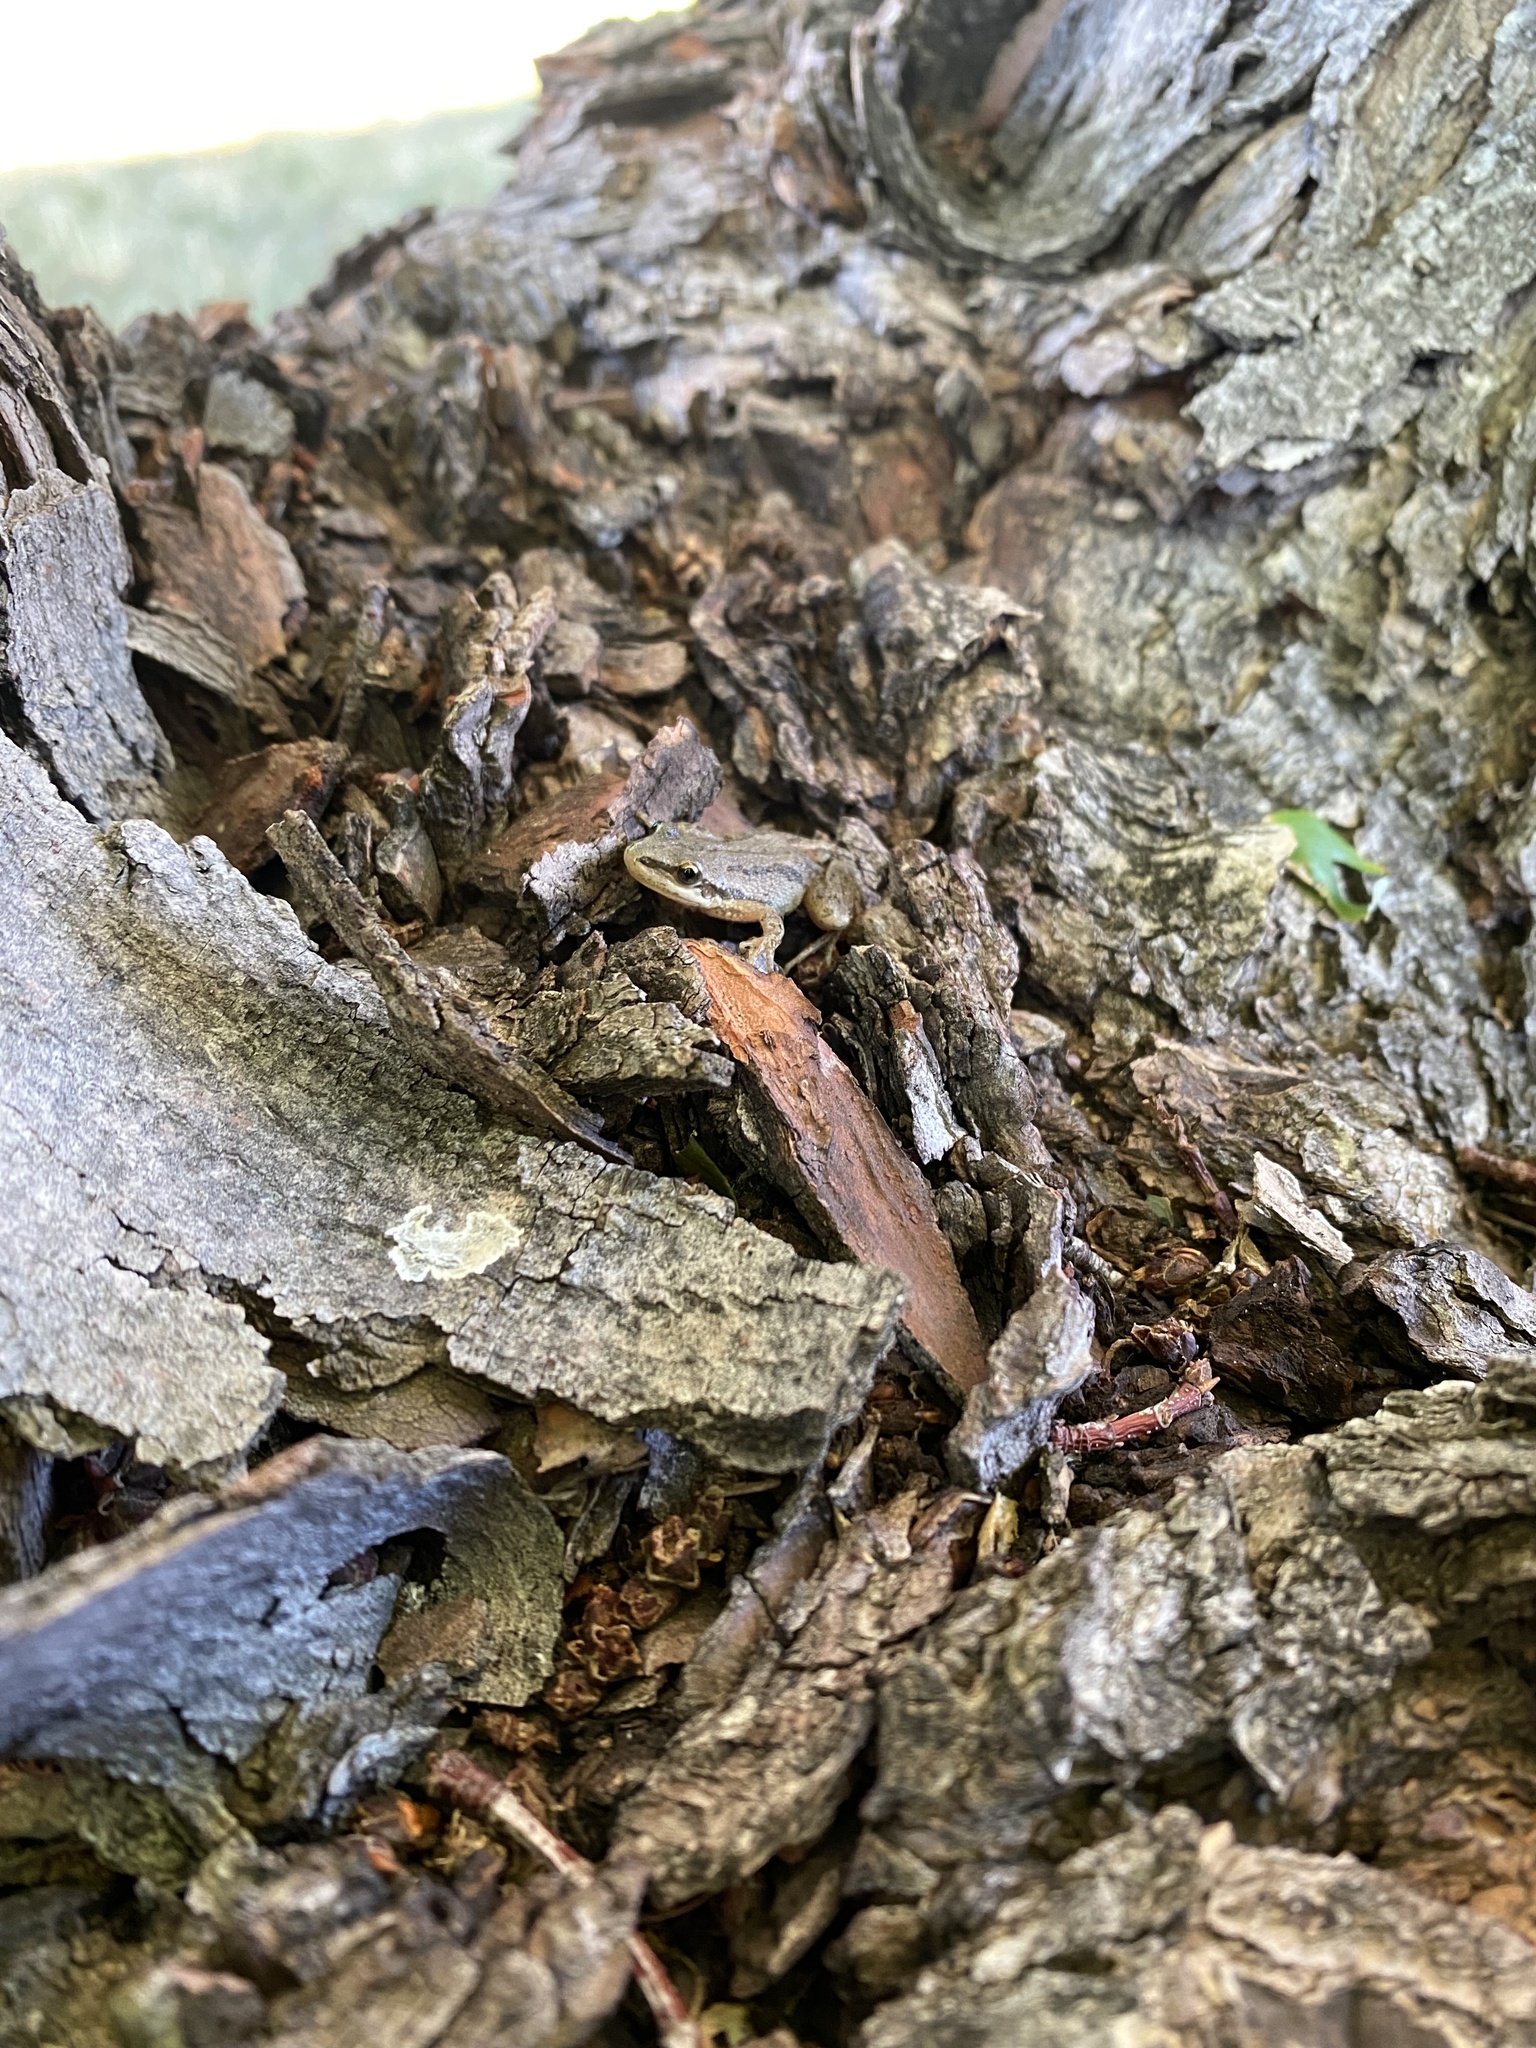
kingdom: Animalia
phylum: Chordata
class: Amphibia
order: Anura
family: Hylidae
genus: Pseudacris
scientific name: Pseudacris maculata
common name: Boreal chorus frog
